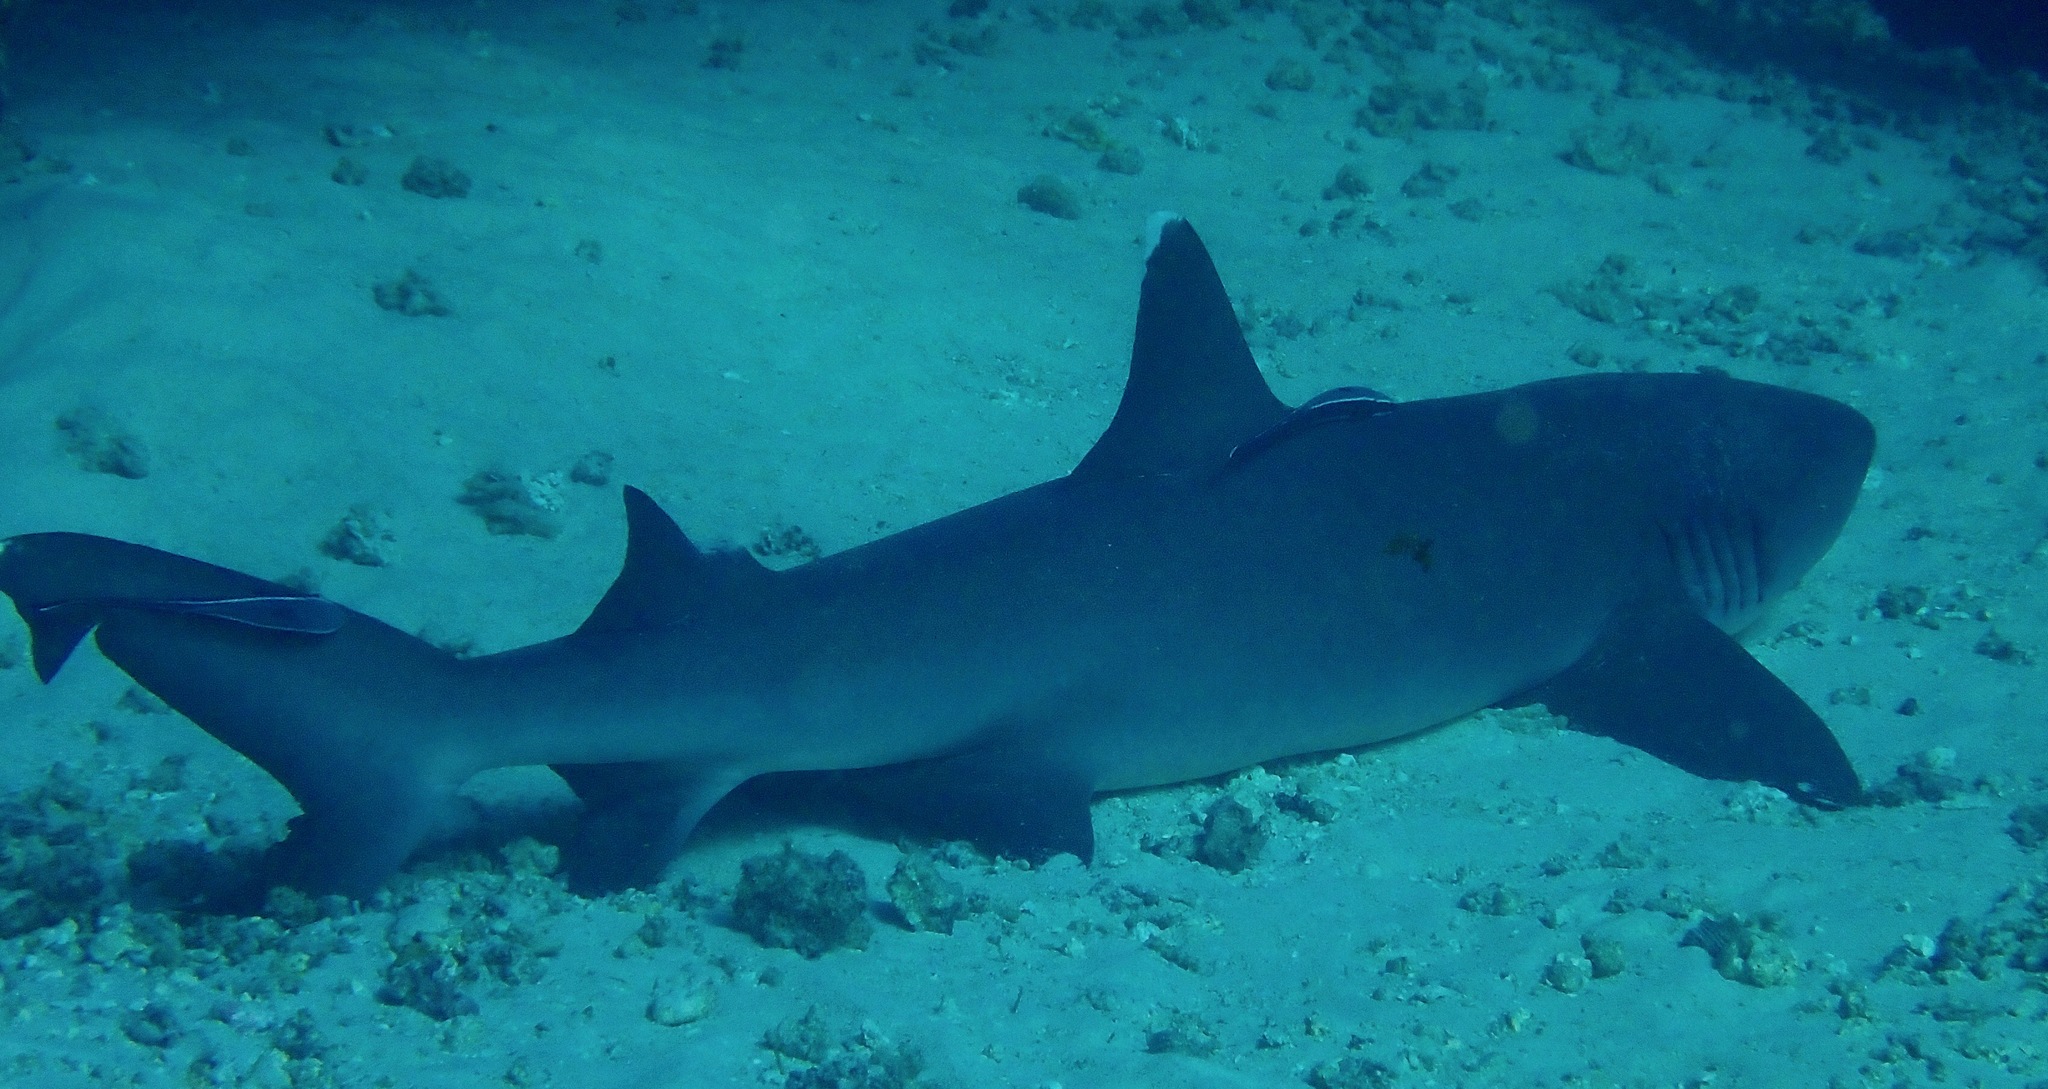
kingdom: Animalia
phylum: Chordata
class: Elasmobranchii
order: Carcharhiniformes
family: Carcharhinidae
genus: Triaenodon
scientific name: Triaenodon obesus
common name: Whitetip reef shark
